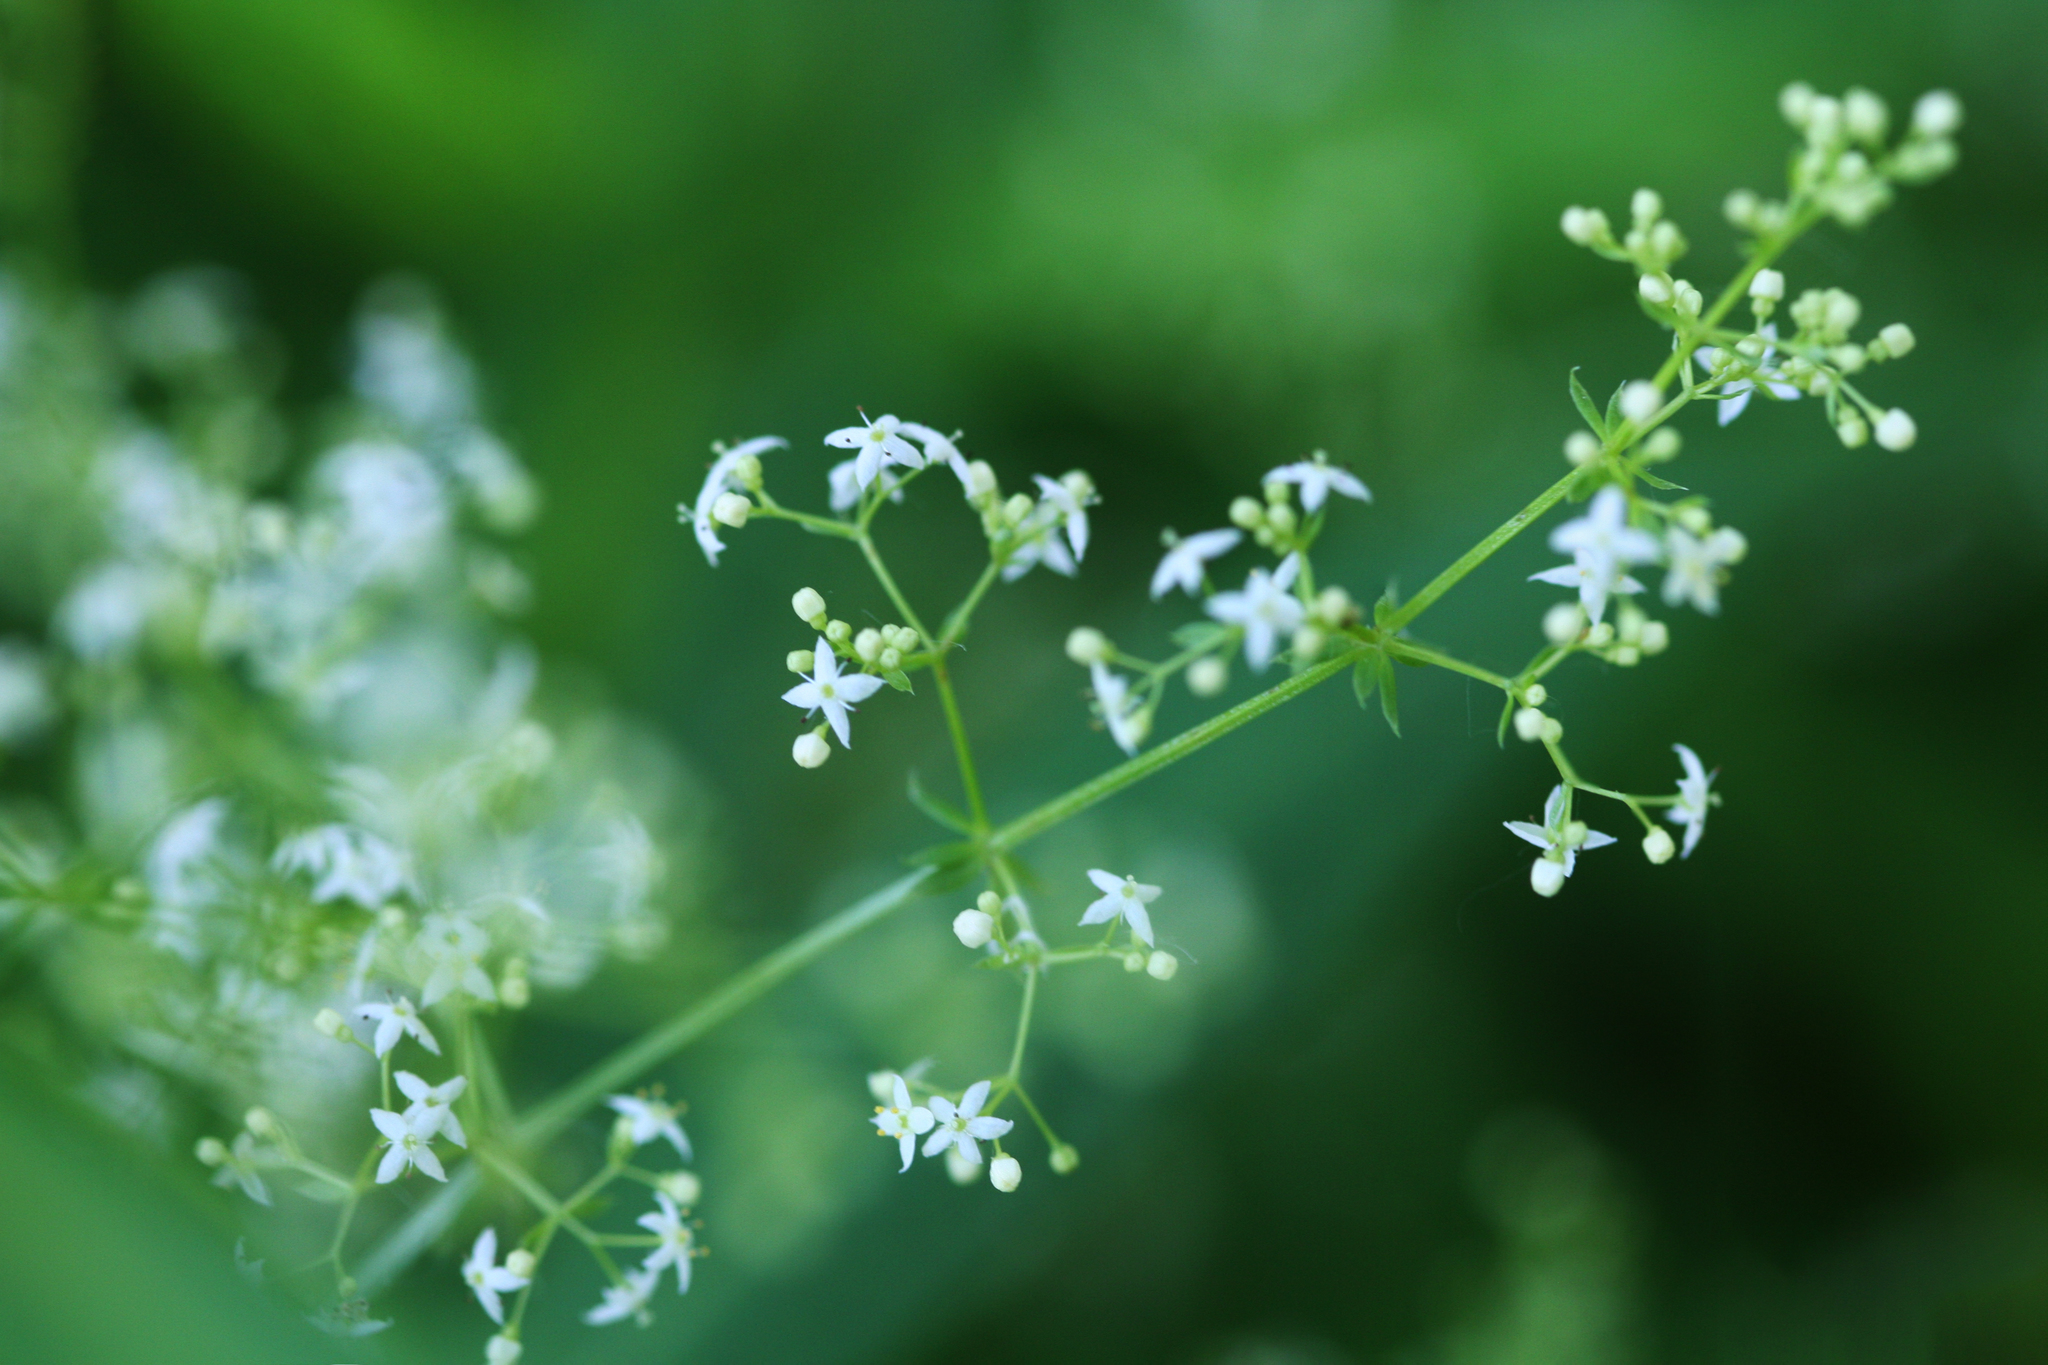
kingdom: Plantae
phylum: Tracheophyta
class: Magnoliopsida
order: Gentianales
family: Rubiaceae
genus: Galium
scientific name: Galium album
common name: White bedstraw
